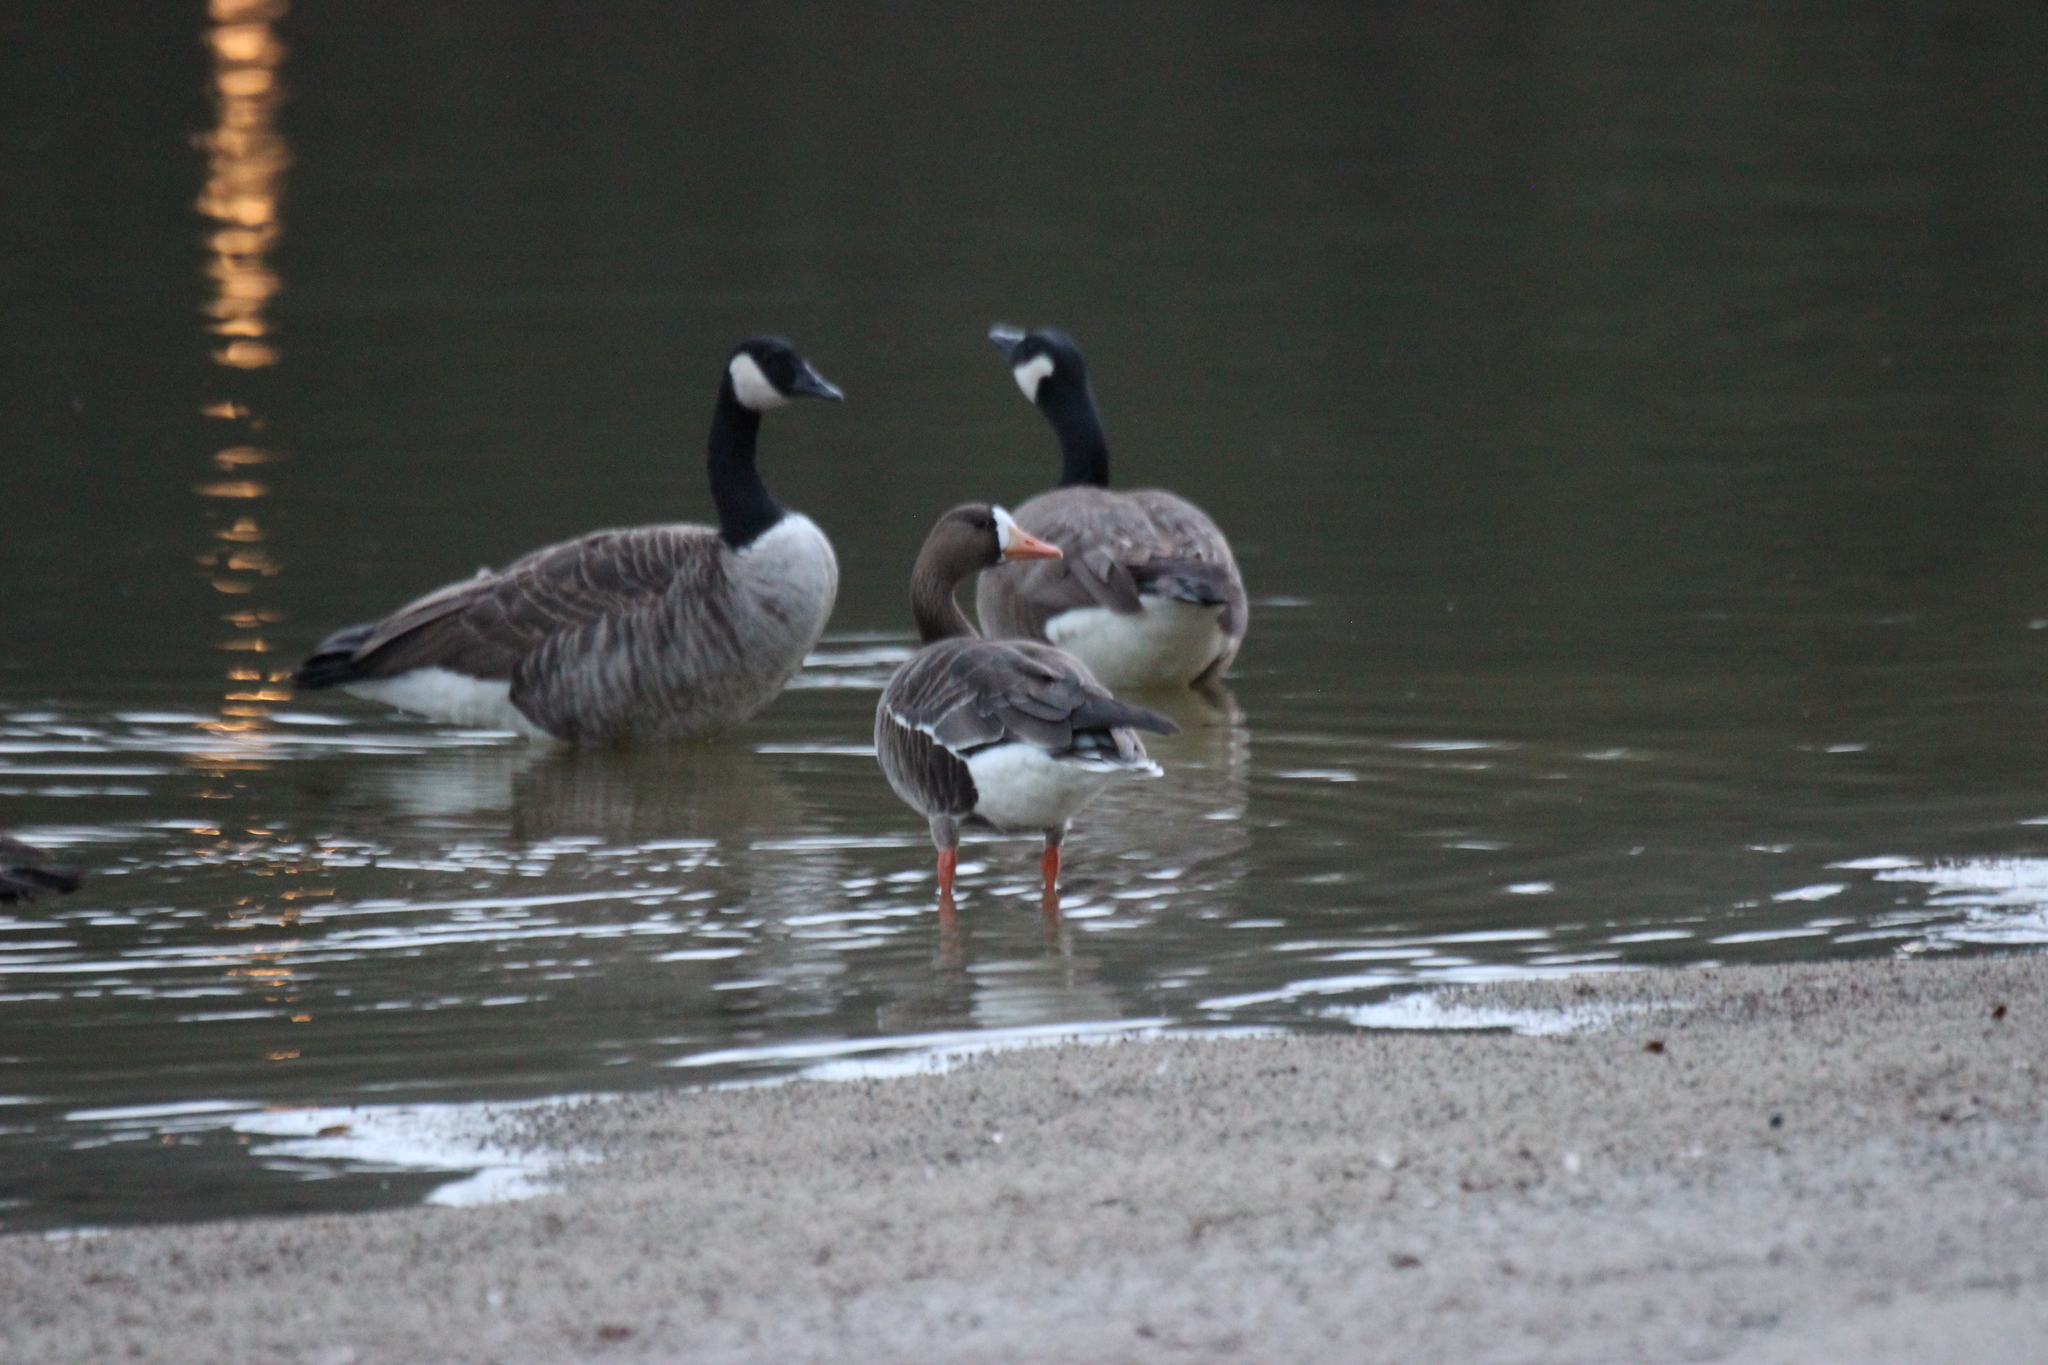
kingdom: Animalia
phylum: Chordata
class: Aves
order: Anseriformes
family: Anatidae
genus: Anser
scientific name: Anser albifrons
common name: Greater white-fronted goose
